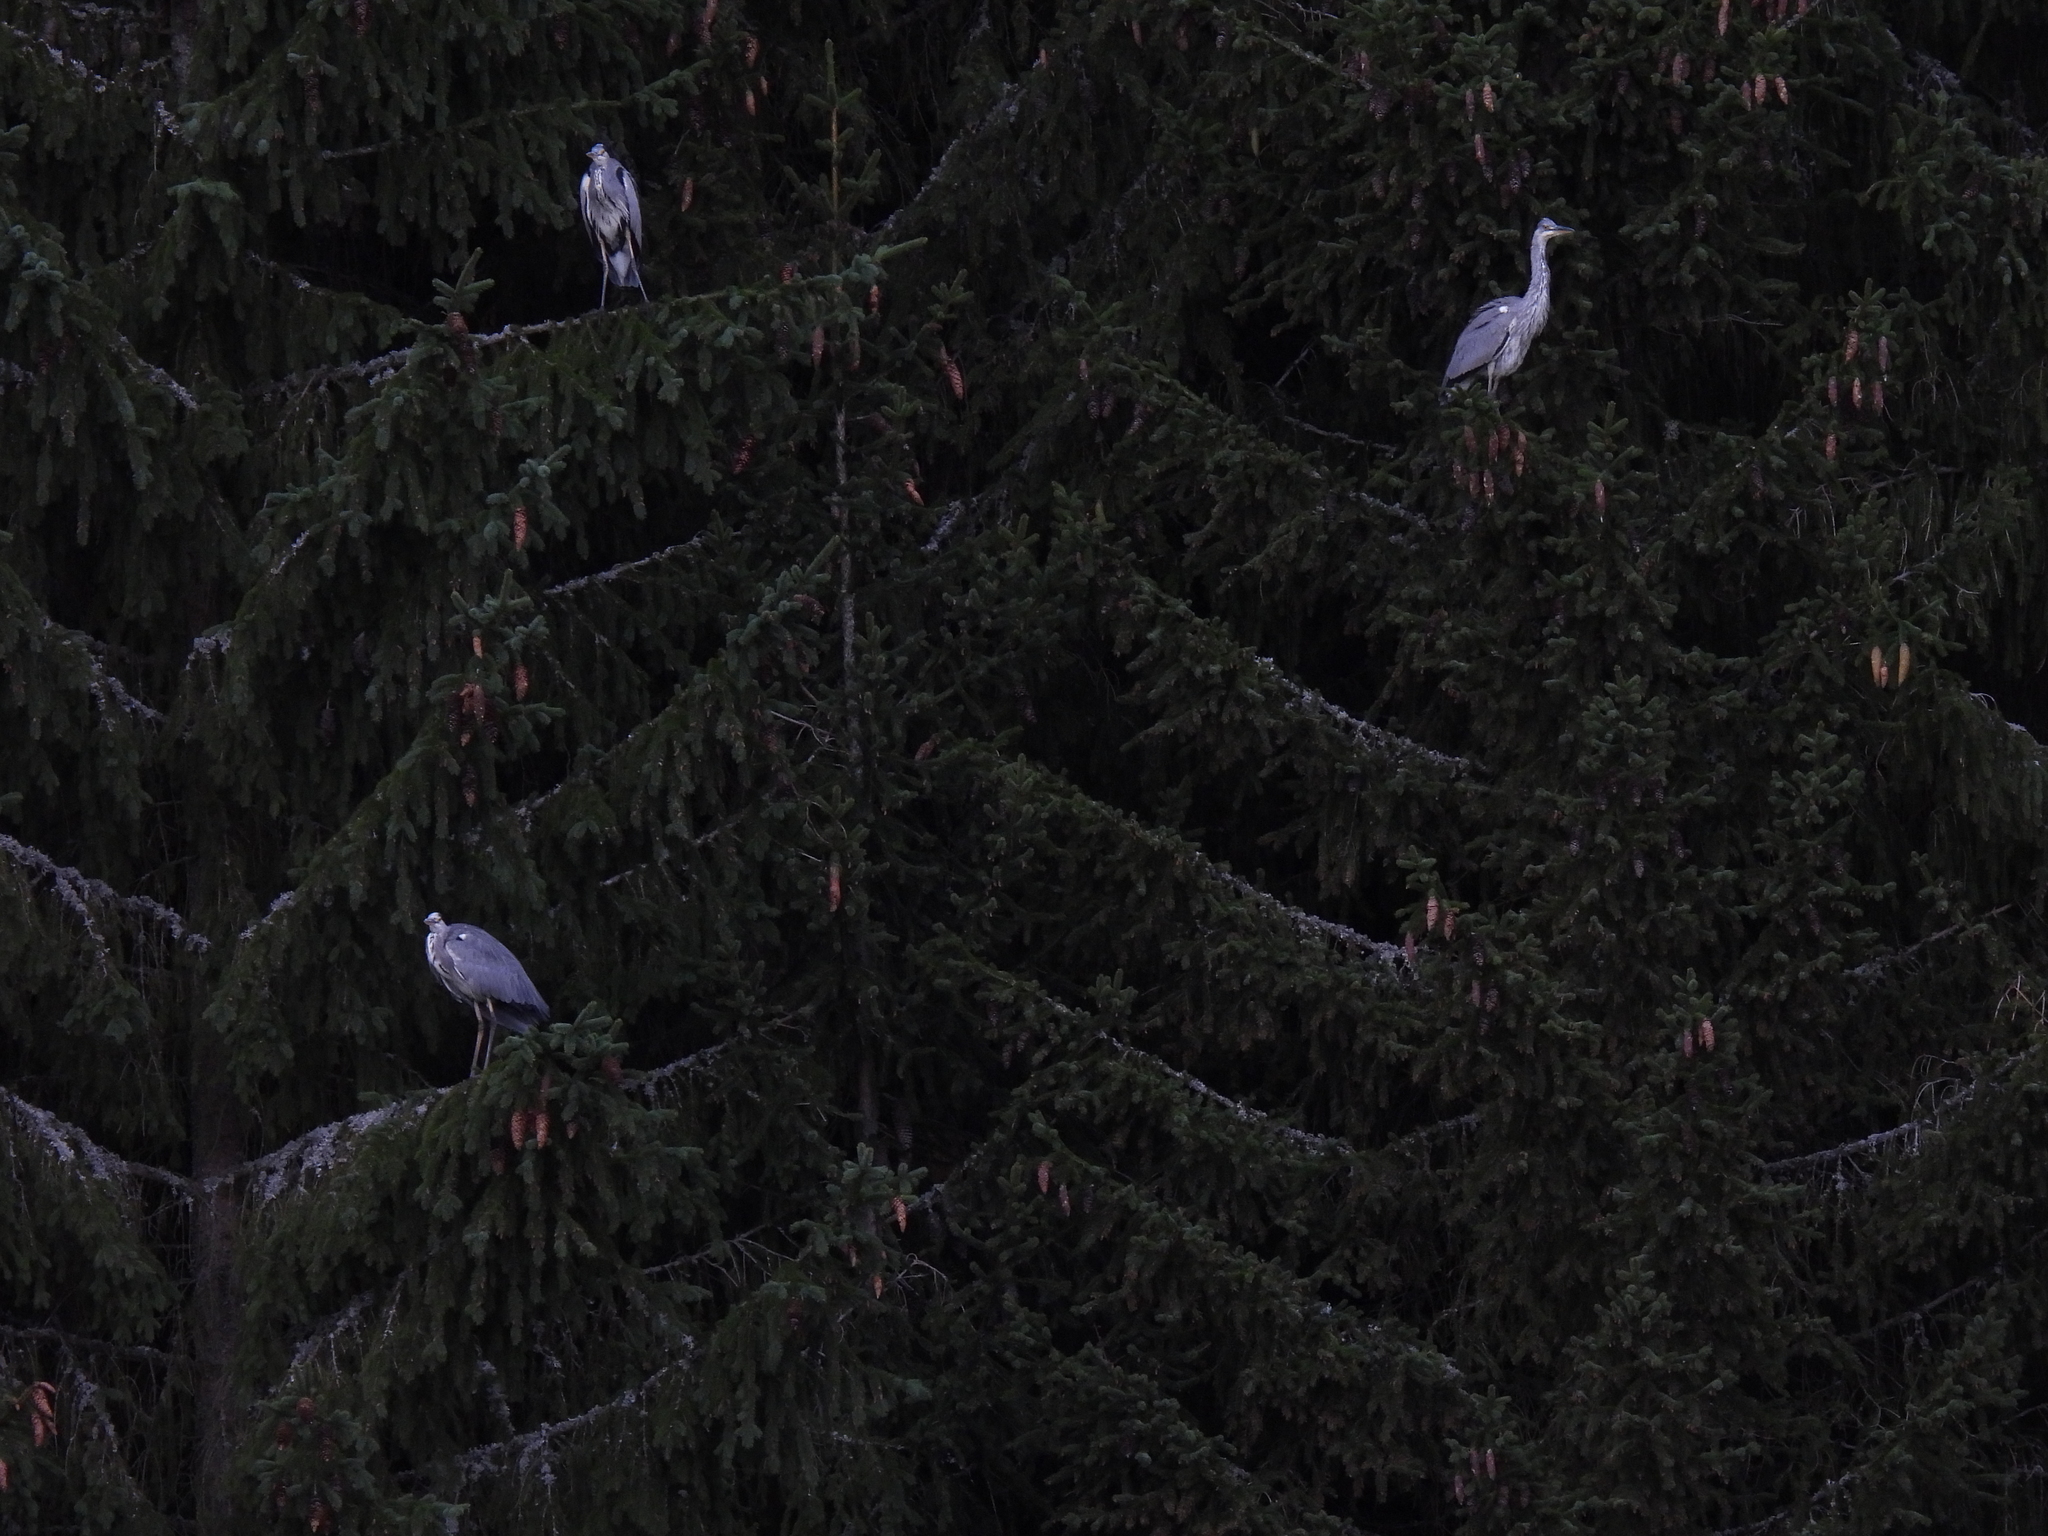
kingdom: Animalia
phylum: Chordata
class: Aves
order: Pelecaniformes
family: Ardeidae
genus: Ardea
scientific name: Ardea cinerea
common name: Grey heron
